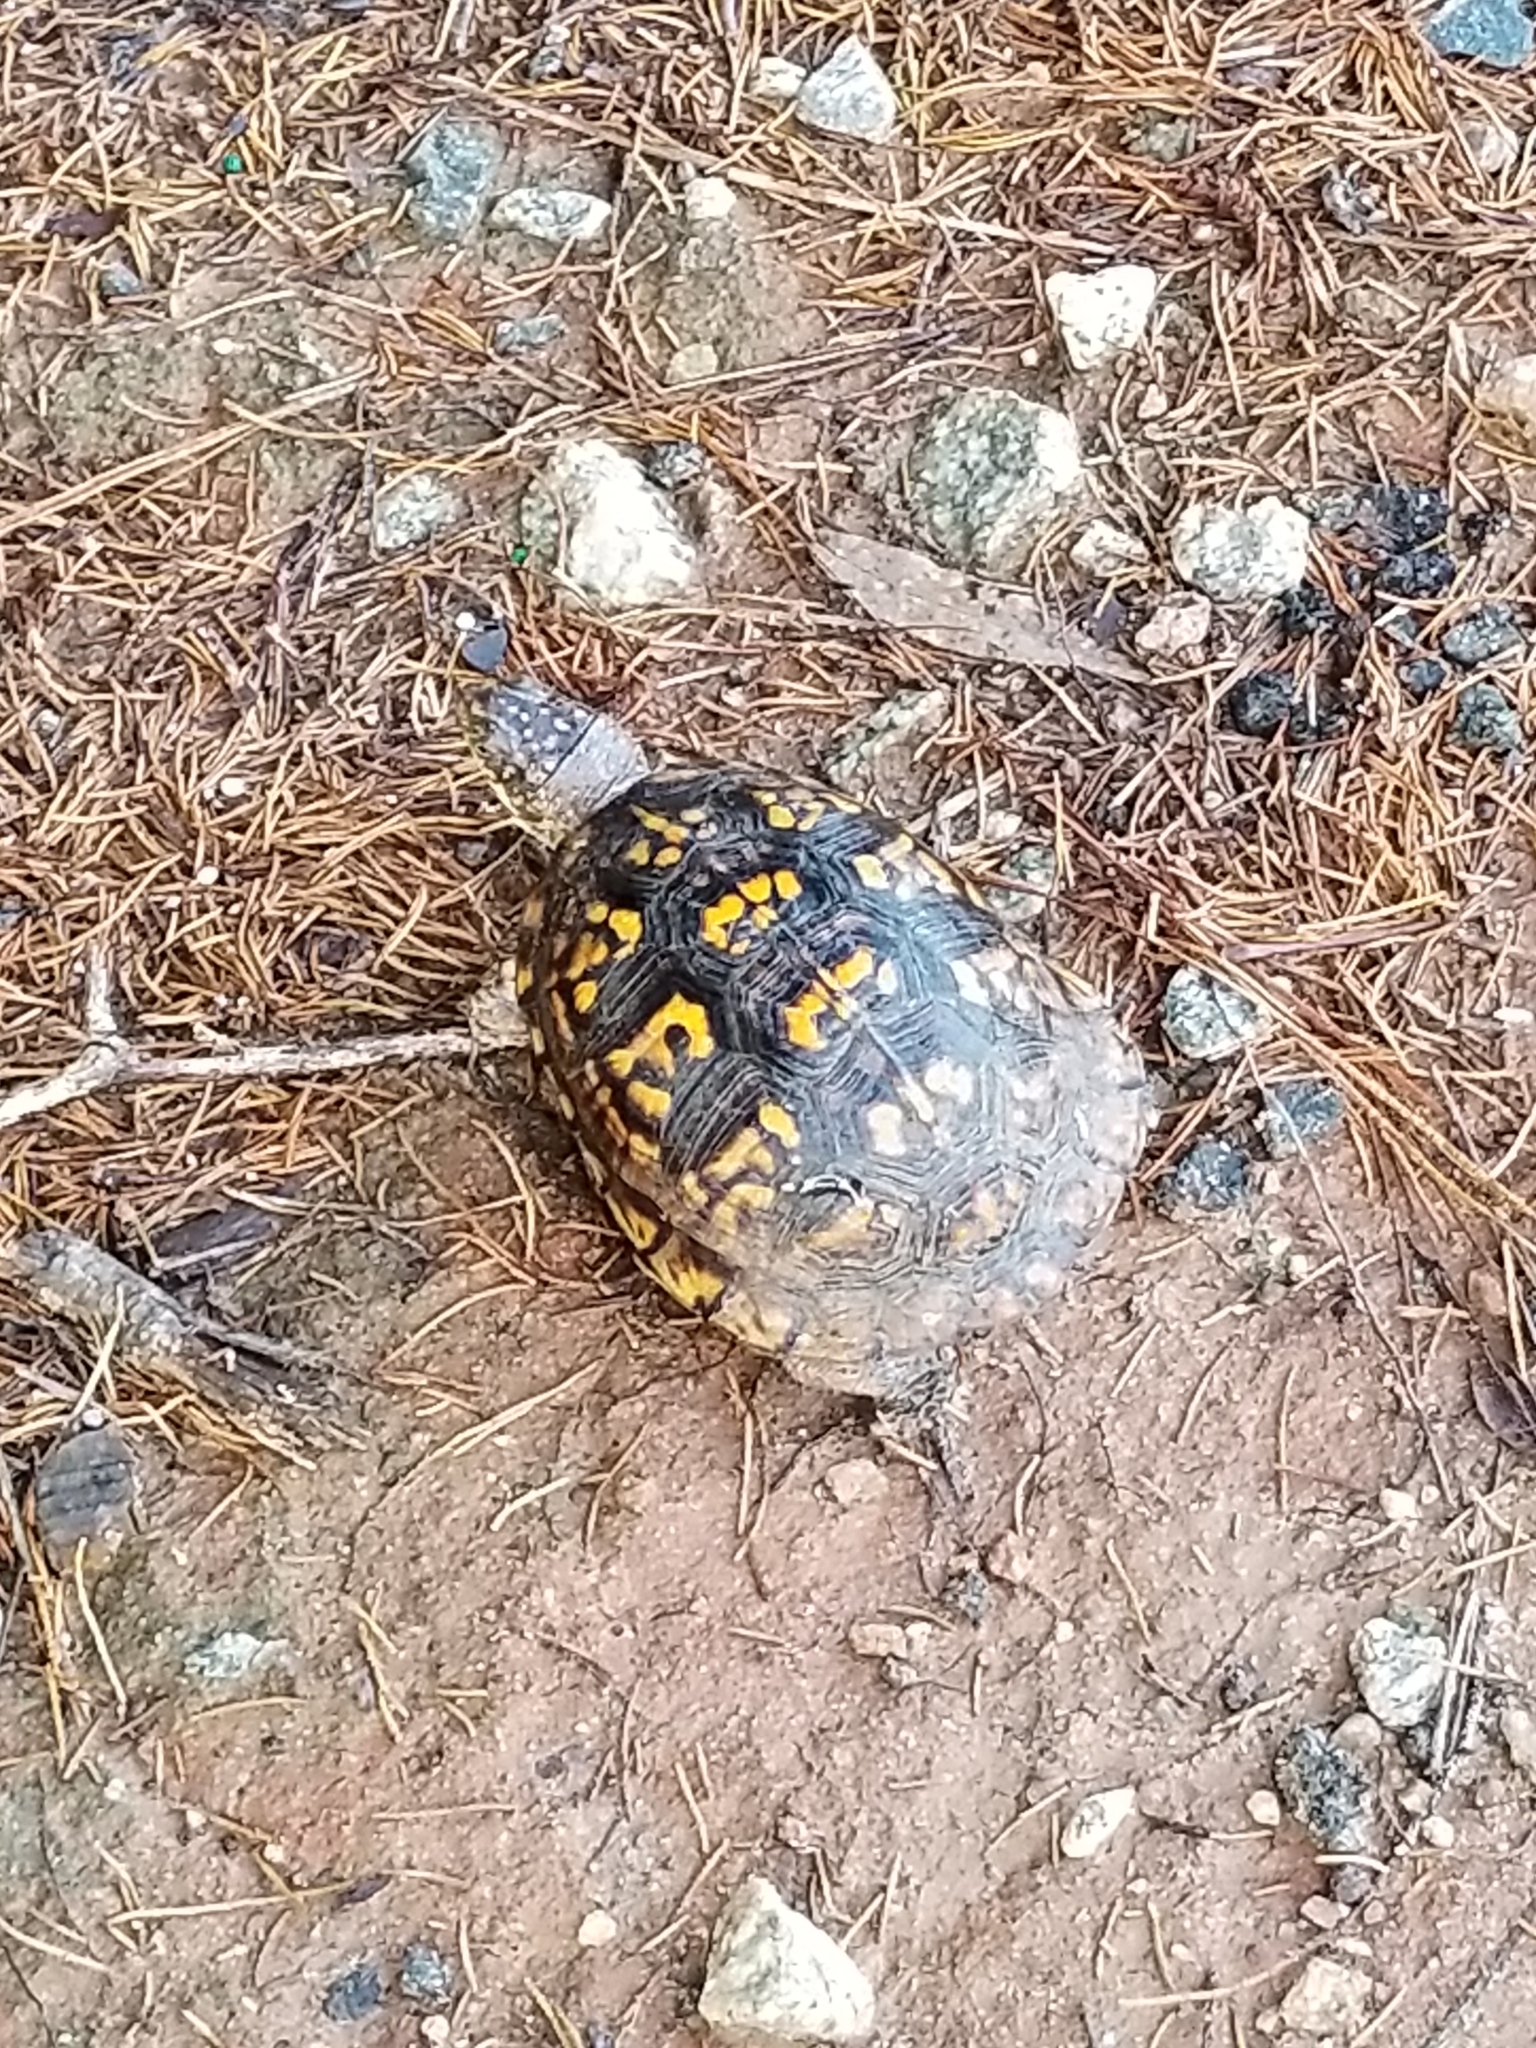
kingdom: Animalia
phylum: Chordata
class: Testudines
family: Emydidae
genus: Terrapene
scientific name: Terrapene carolina
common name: Common box turtle
